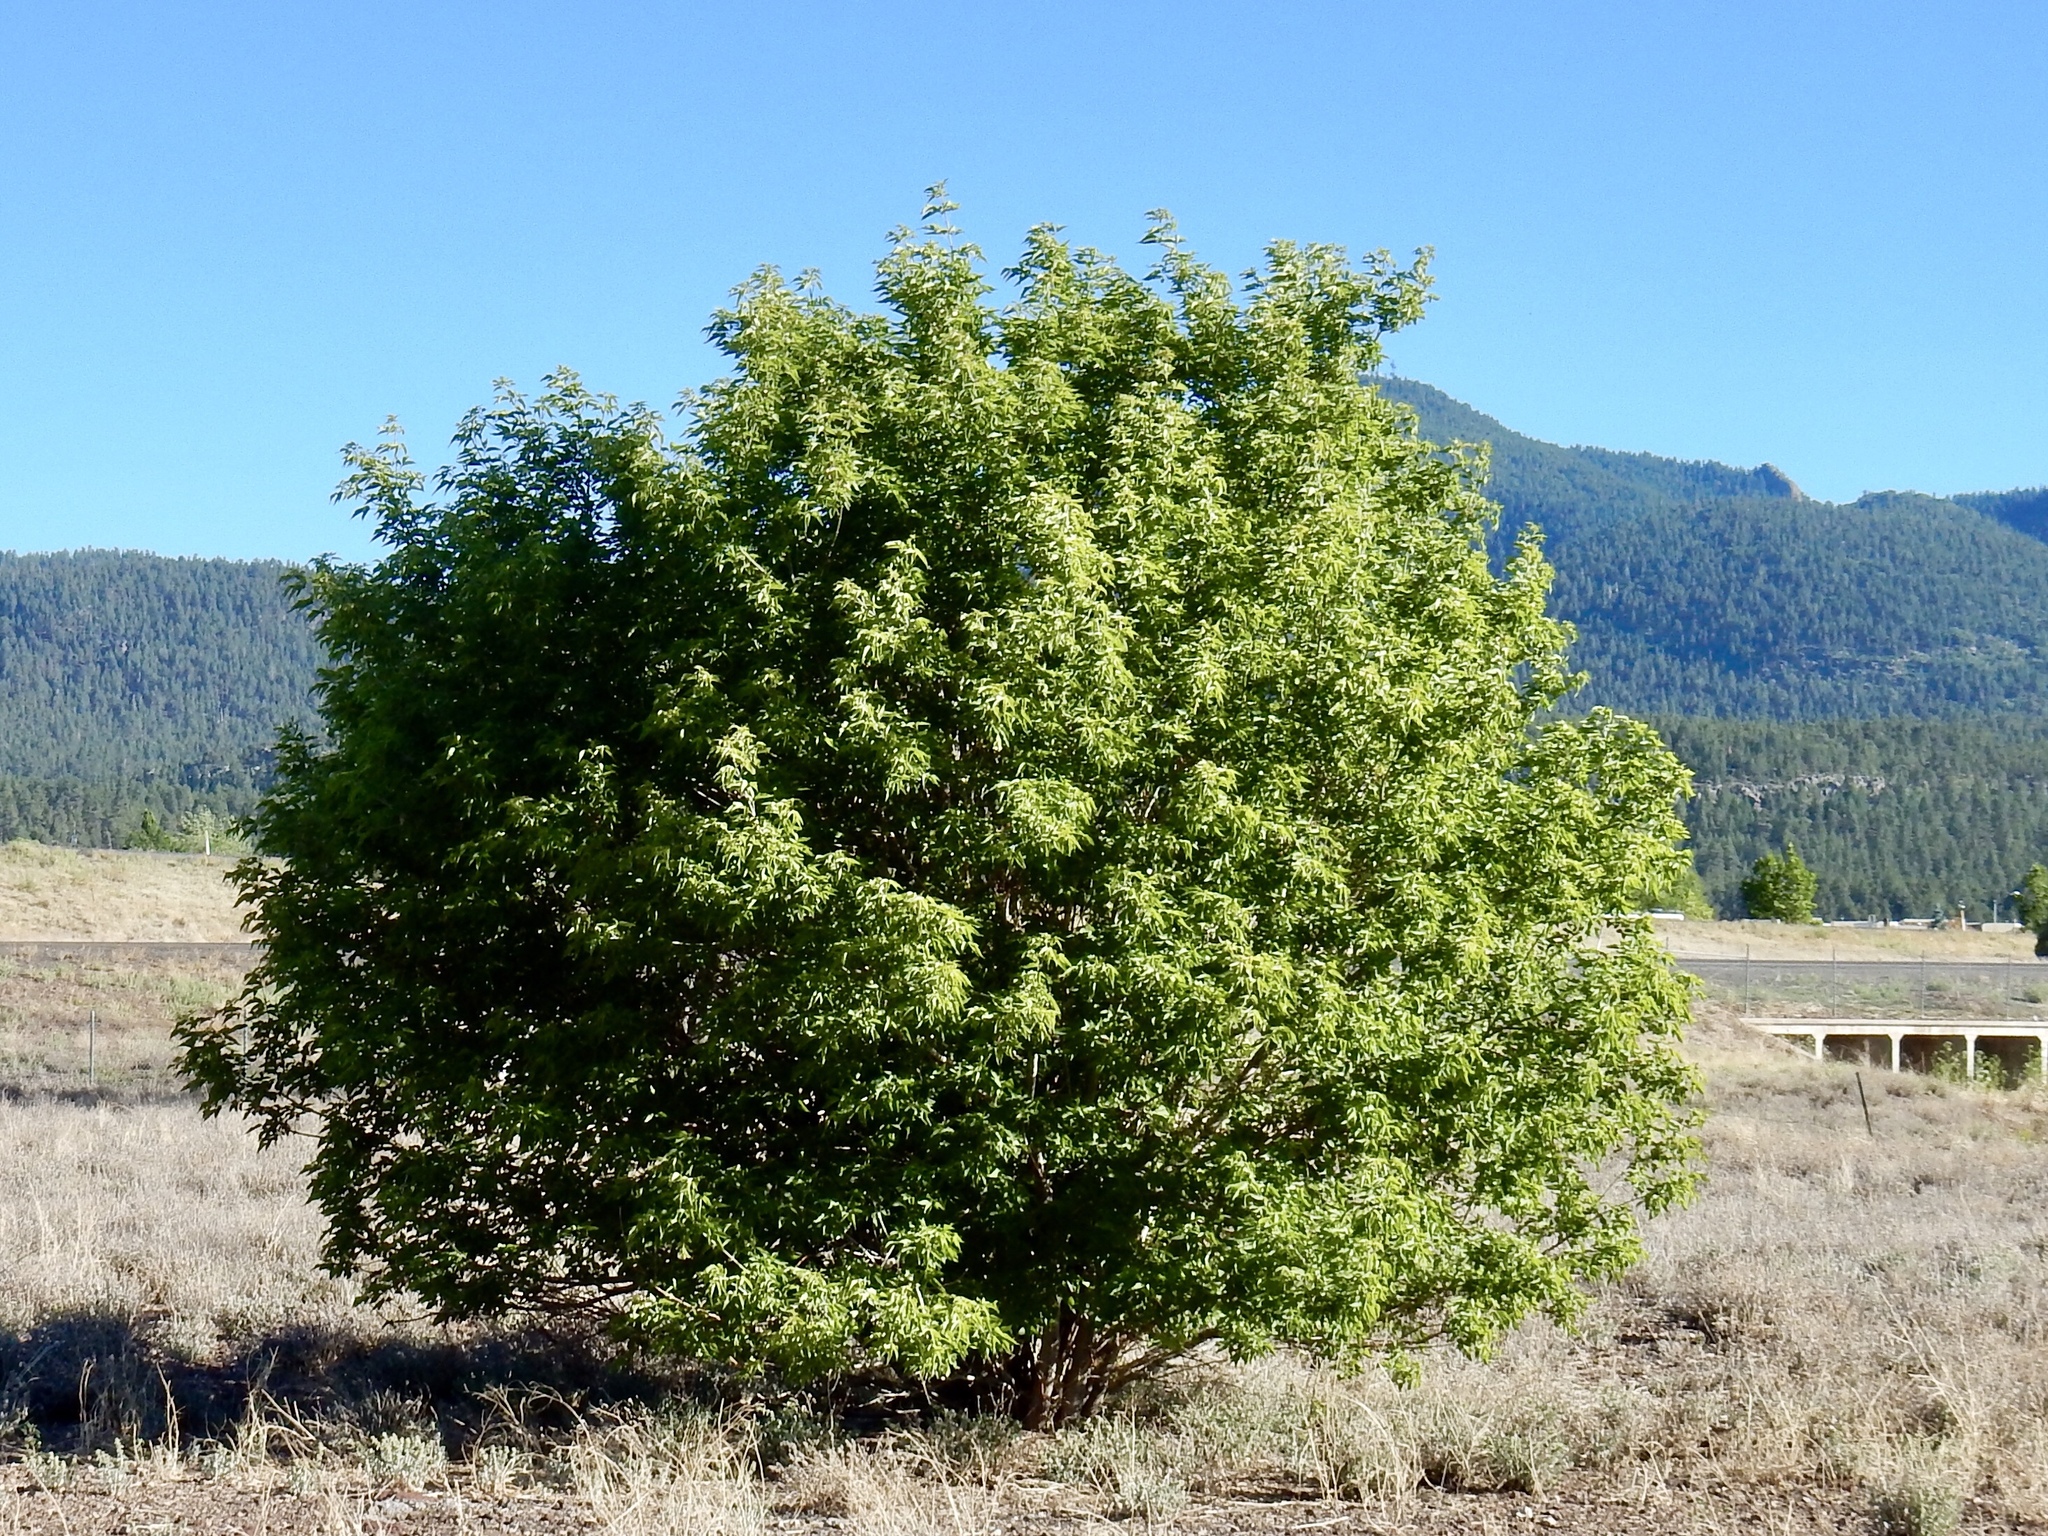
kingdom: Plantae
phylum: Tracheophyta
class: Magnoliopsida
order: Sapindales
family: Sapindaceae
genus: Acer
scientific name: Acer negundo
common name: Ashleaf maple
